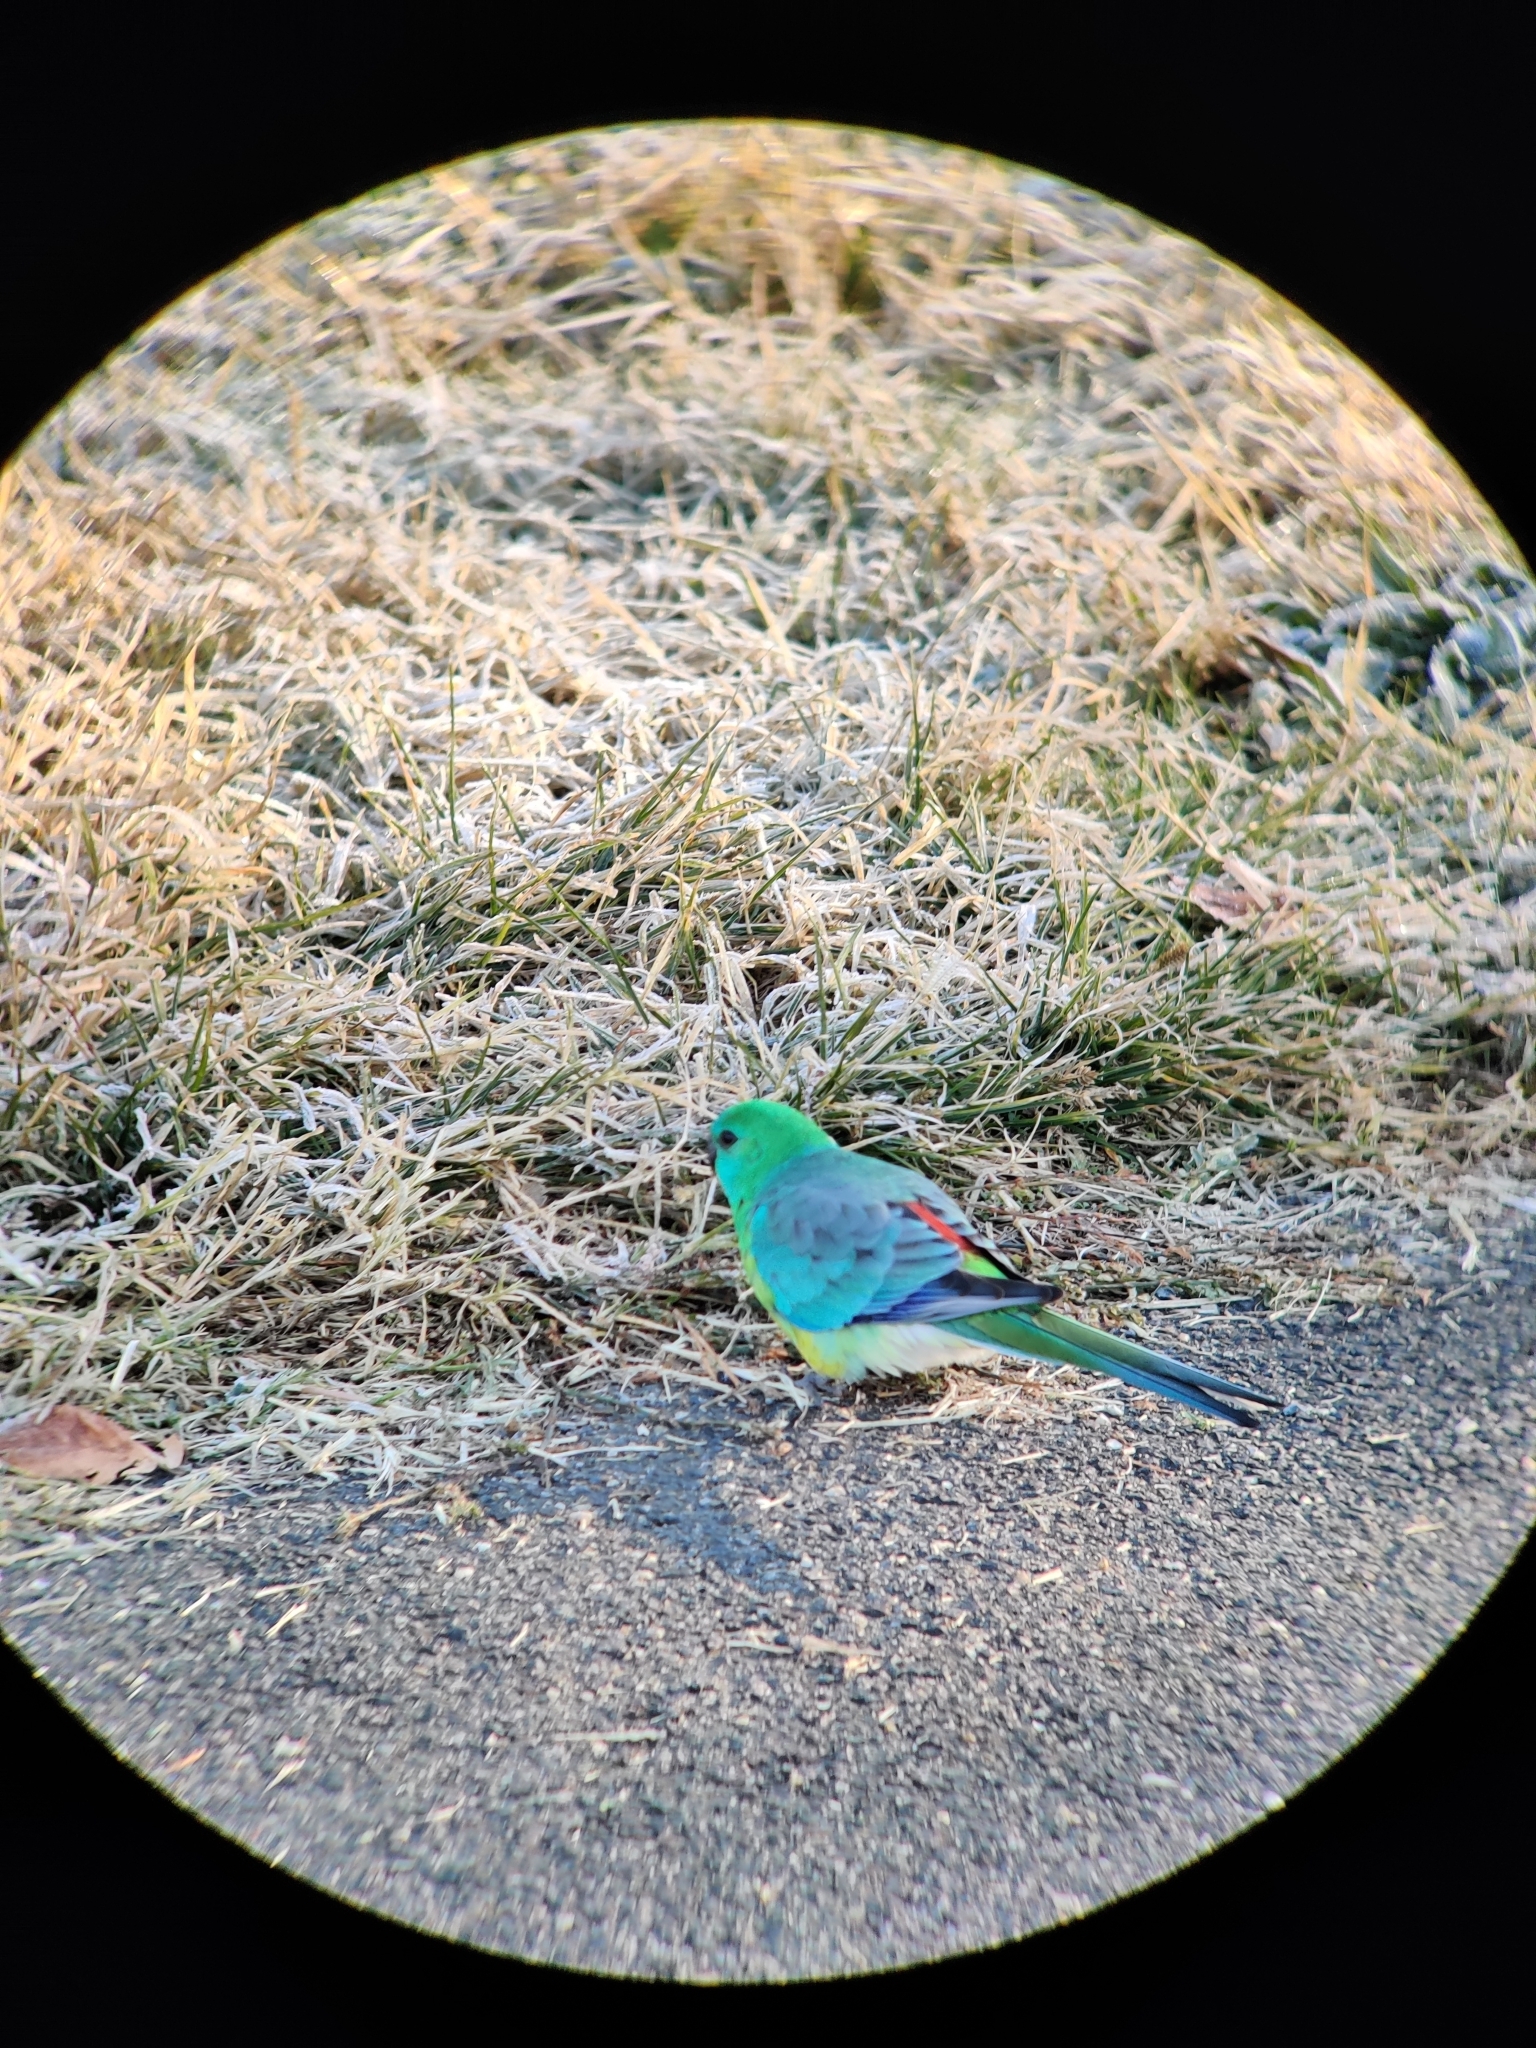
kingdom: Animalia
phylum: Chordata
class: Aves
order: Psittaciformes
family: Psittacidae
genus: Psephotus
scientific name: Psephotus haematonotus
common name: Red-rumped parrot
